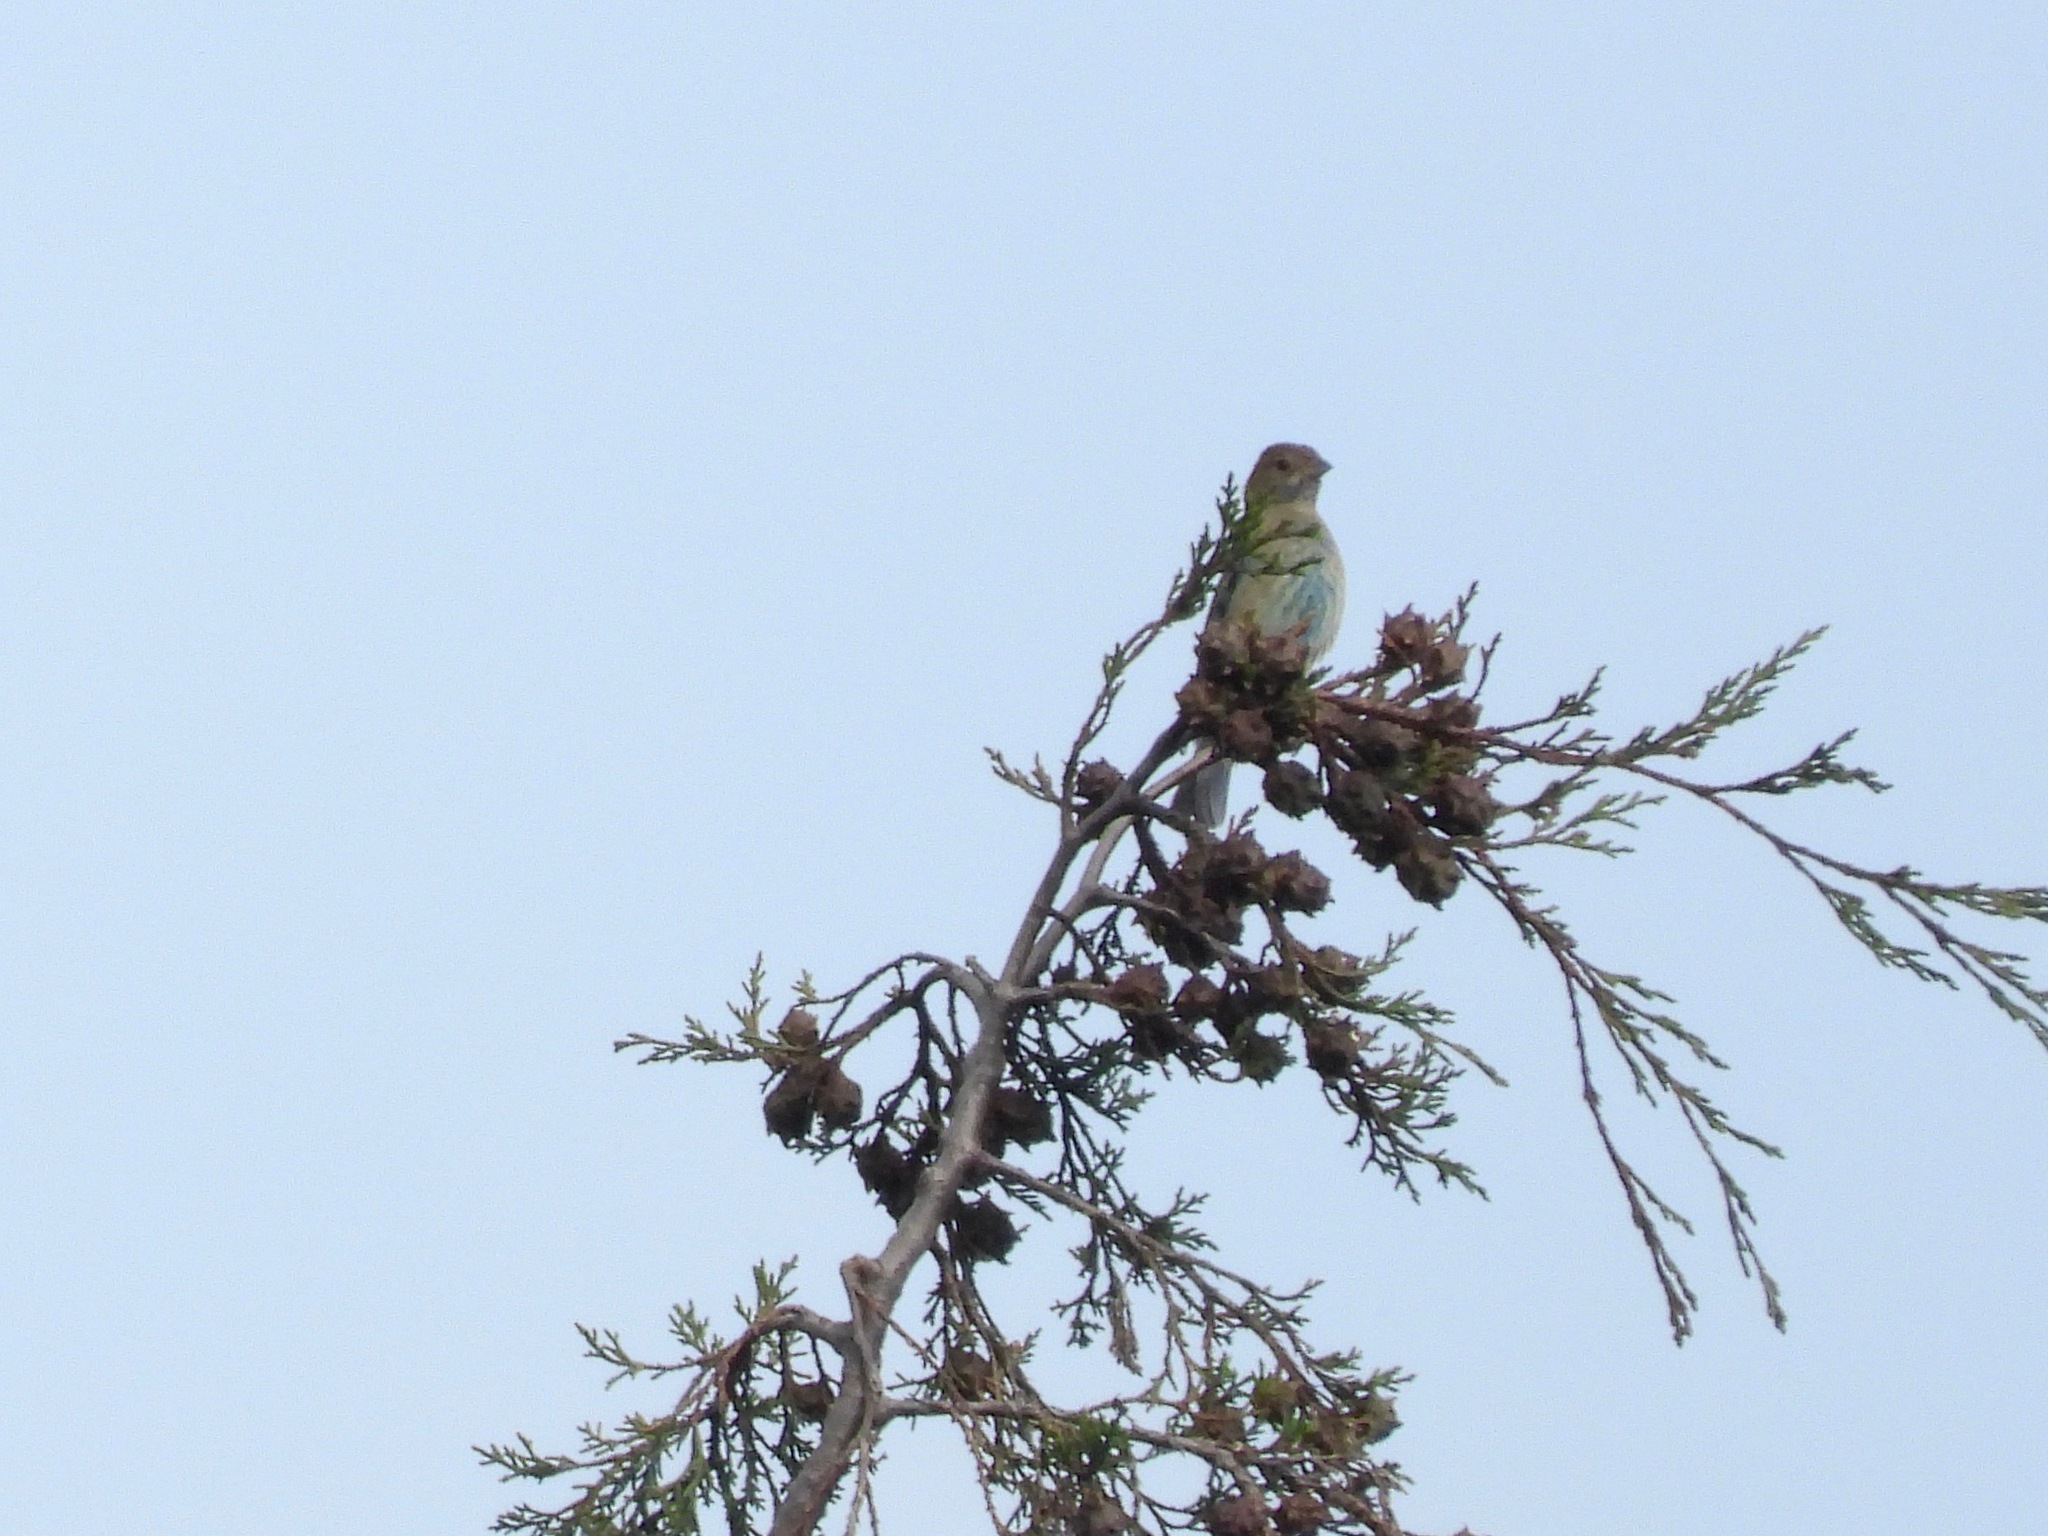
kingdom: Animalia
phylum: Chordata
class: Aves
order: Passeriformes
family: Cardinalidae
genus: Passerina
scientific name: Passerina cyanea
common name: Indigo bunting
